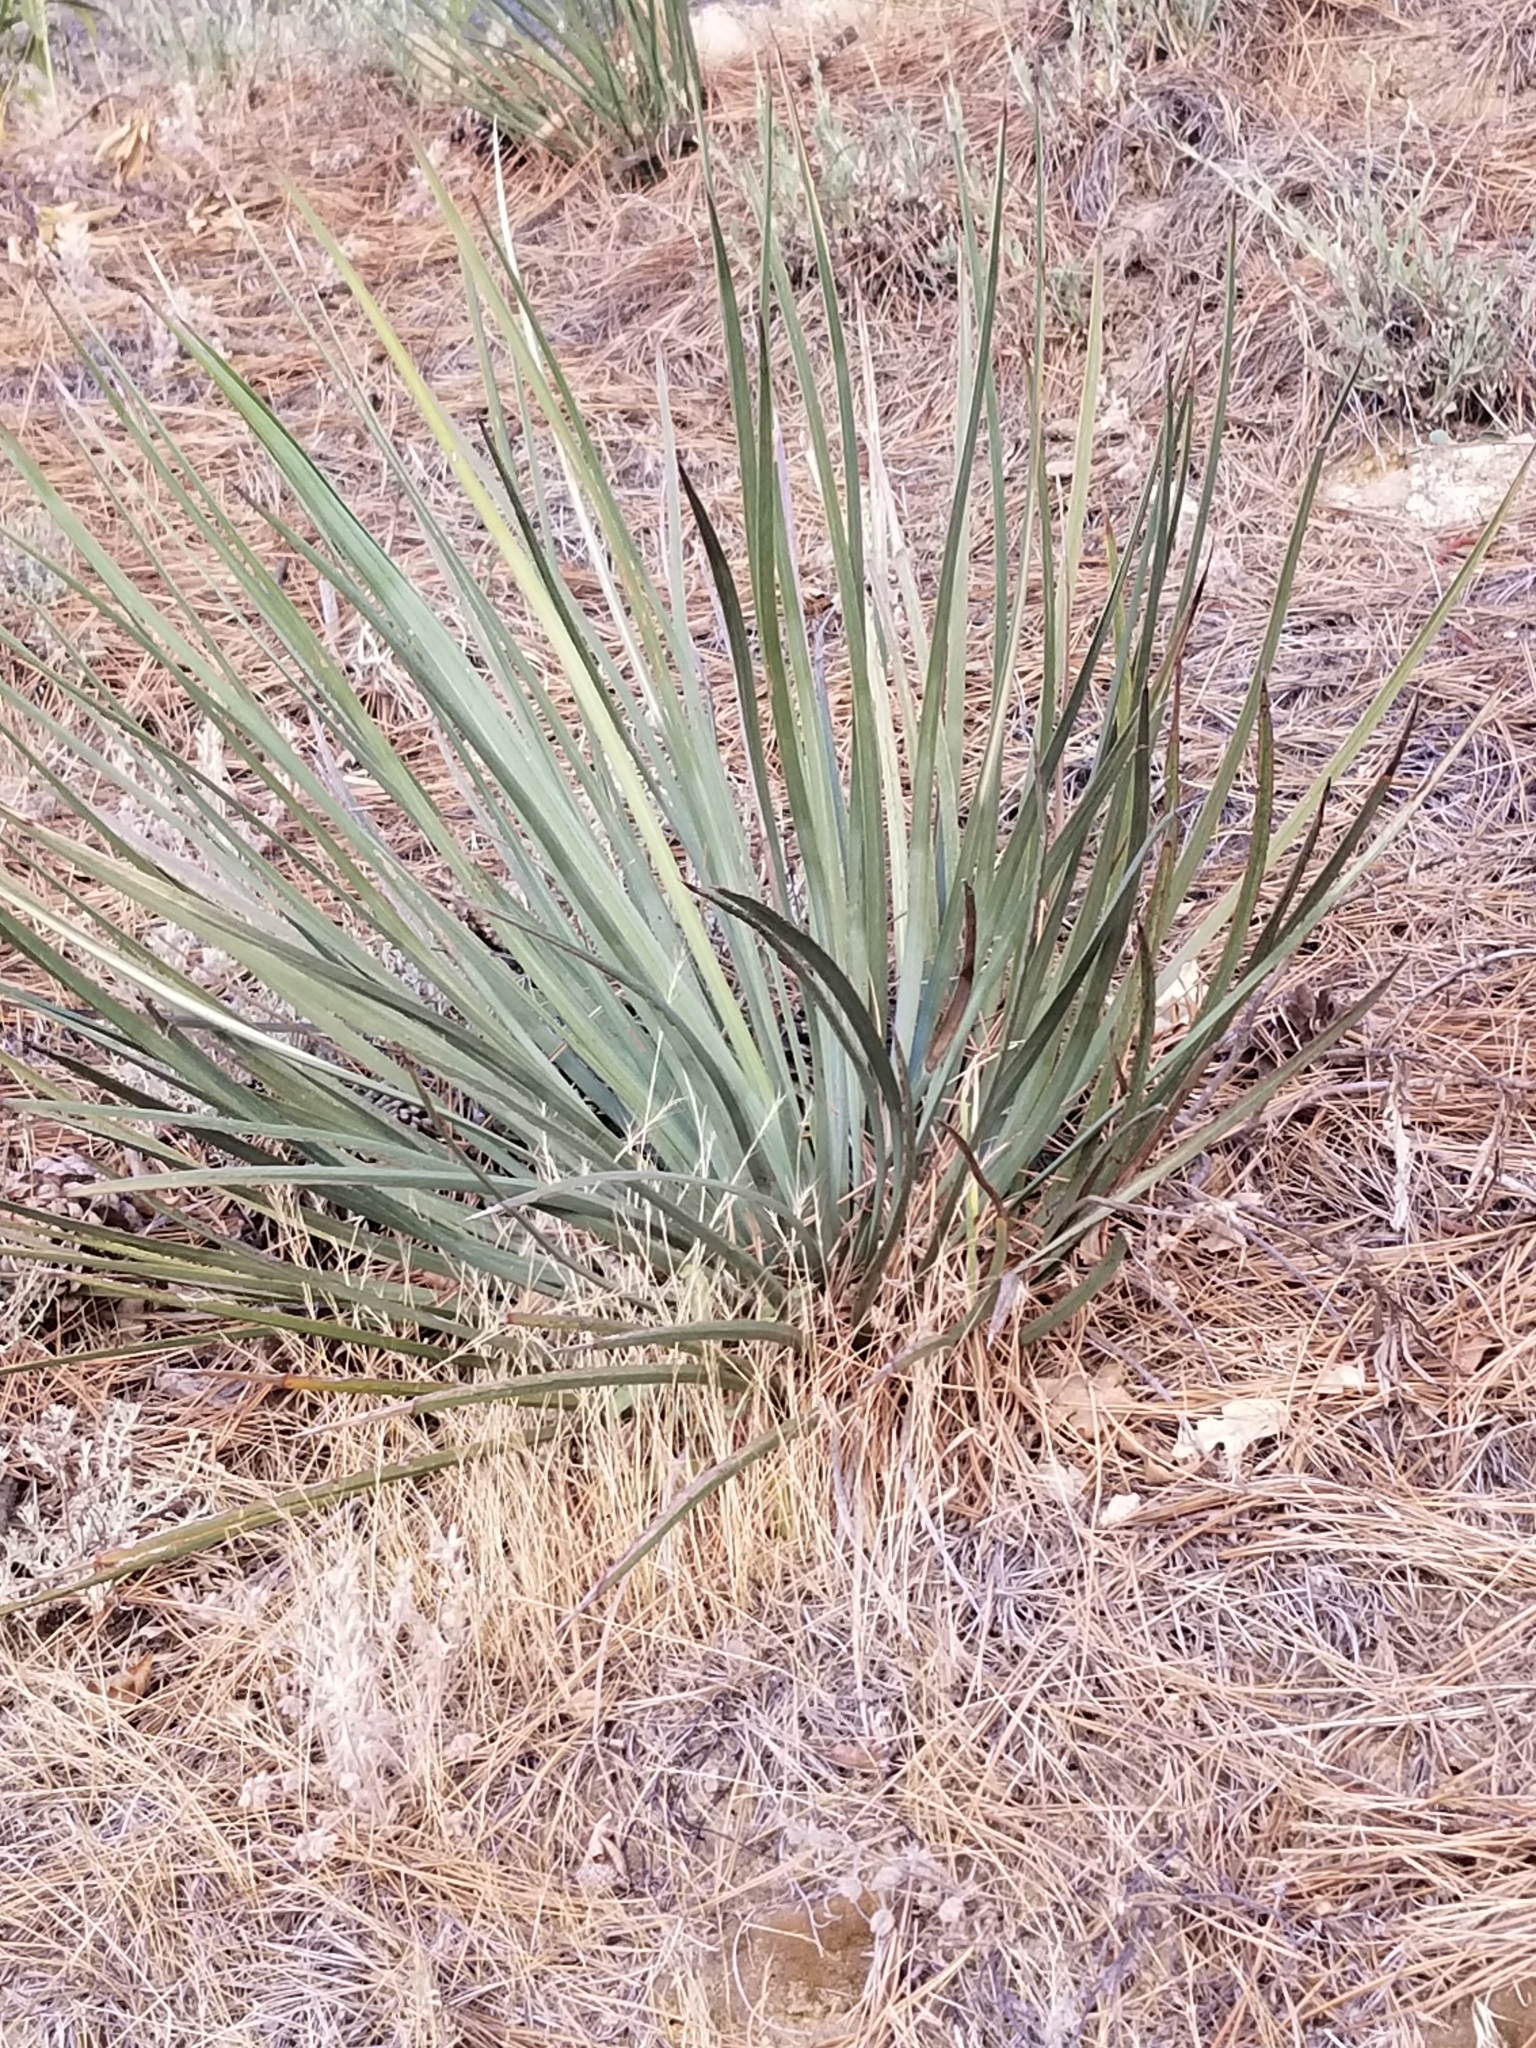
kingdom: Plantae
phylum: Tracheophyta
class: Liliopsida
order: Asparagales
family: Asparagaceae
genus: Hesperoyucca
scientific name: Hesperoyucca whipplei
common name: Our lord's-candle
